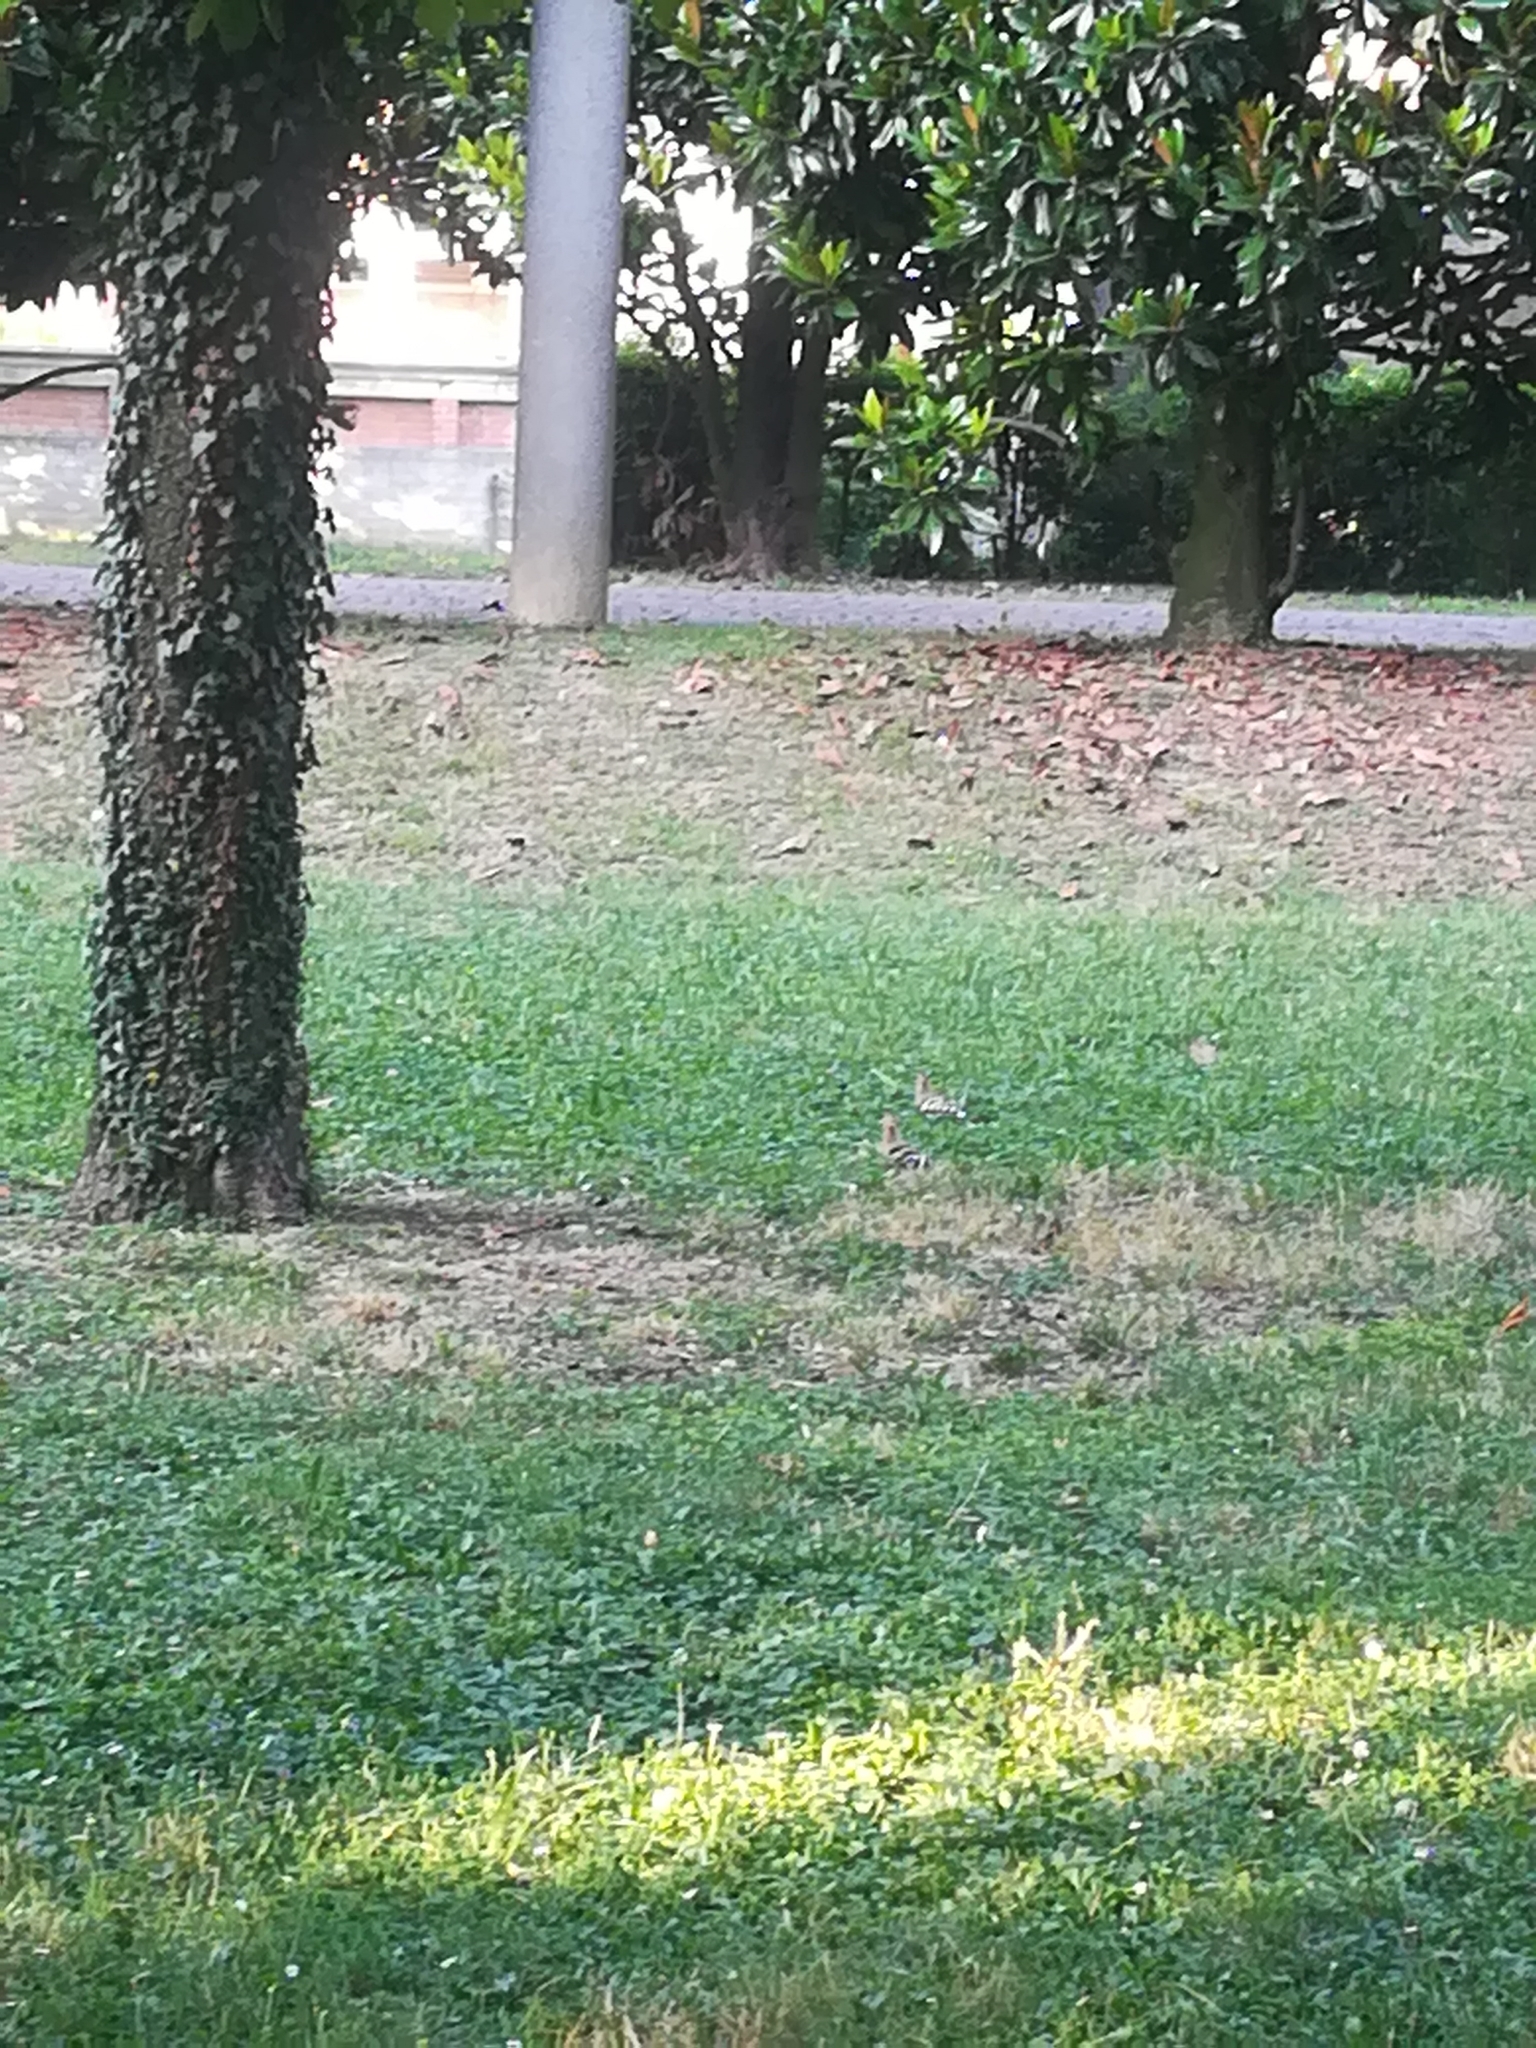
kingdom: Animalia
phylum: Chordata
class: Aves
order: Bucerotiformes
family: Upupidae
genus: Upupa
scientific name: Upupa epops
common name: Eurasian hoopoe
